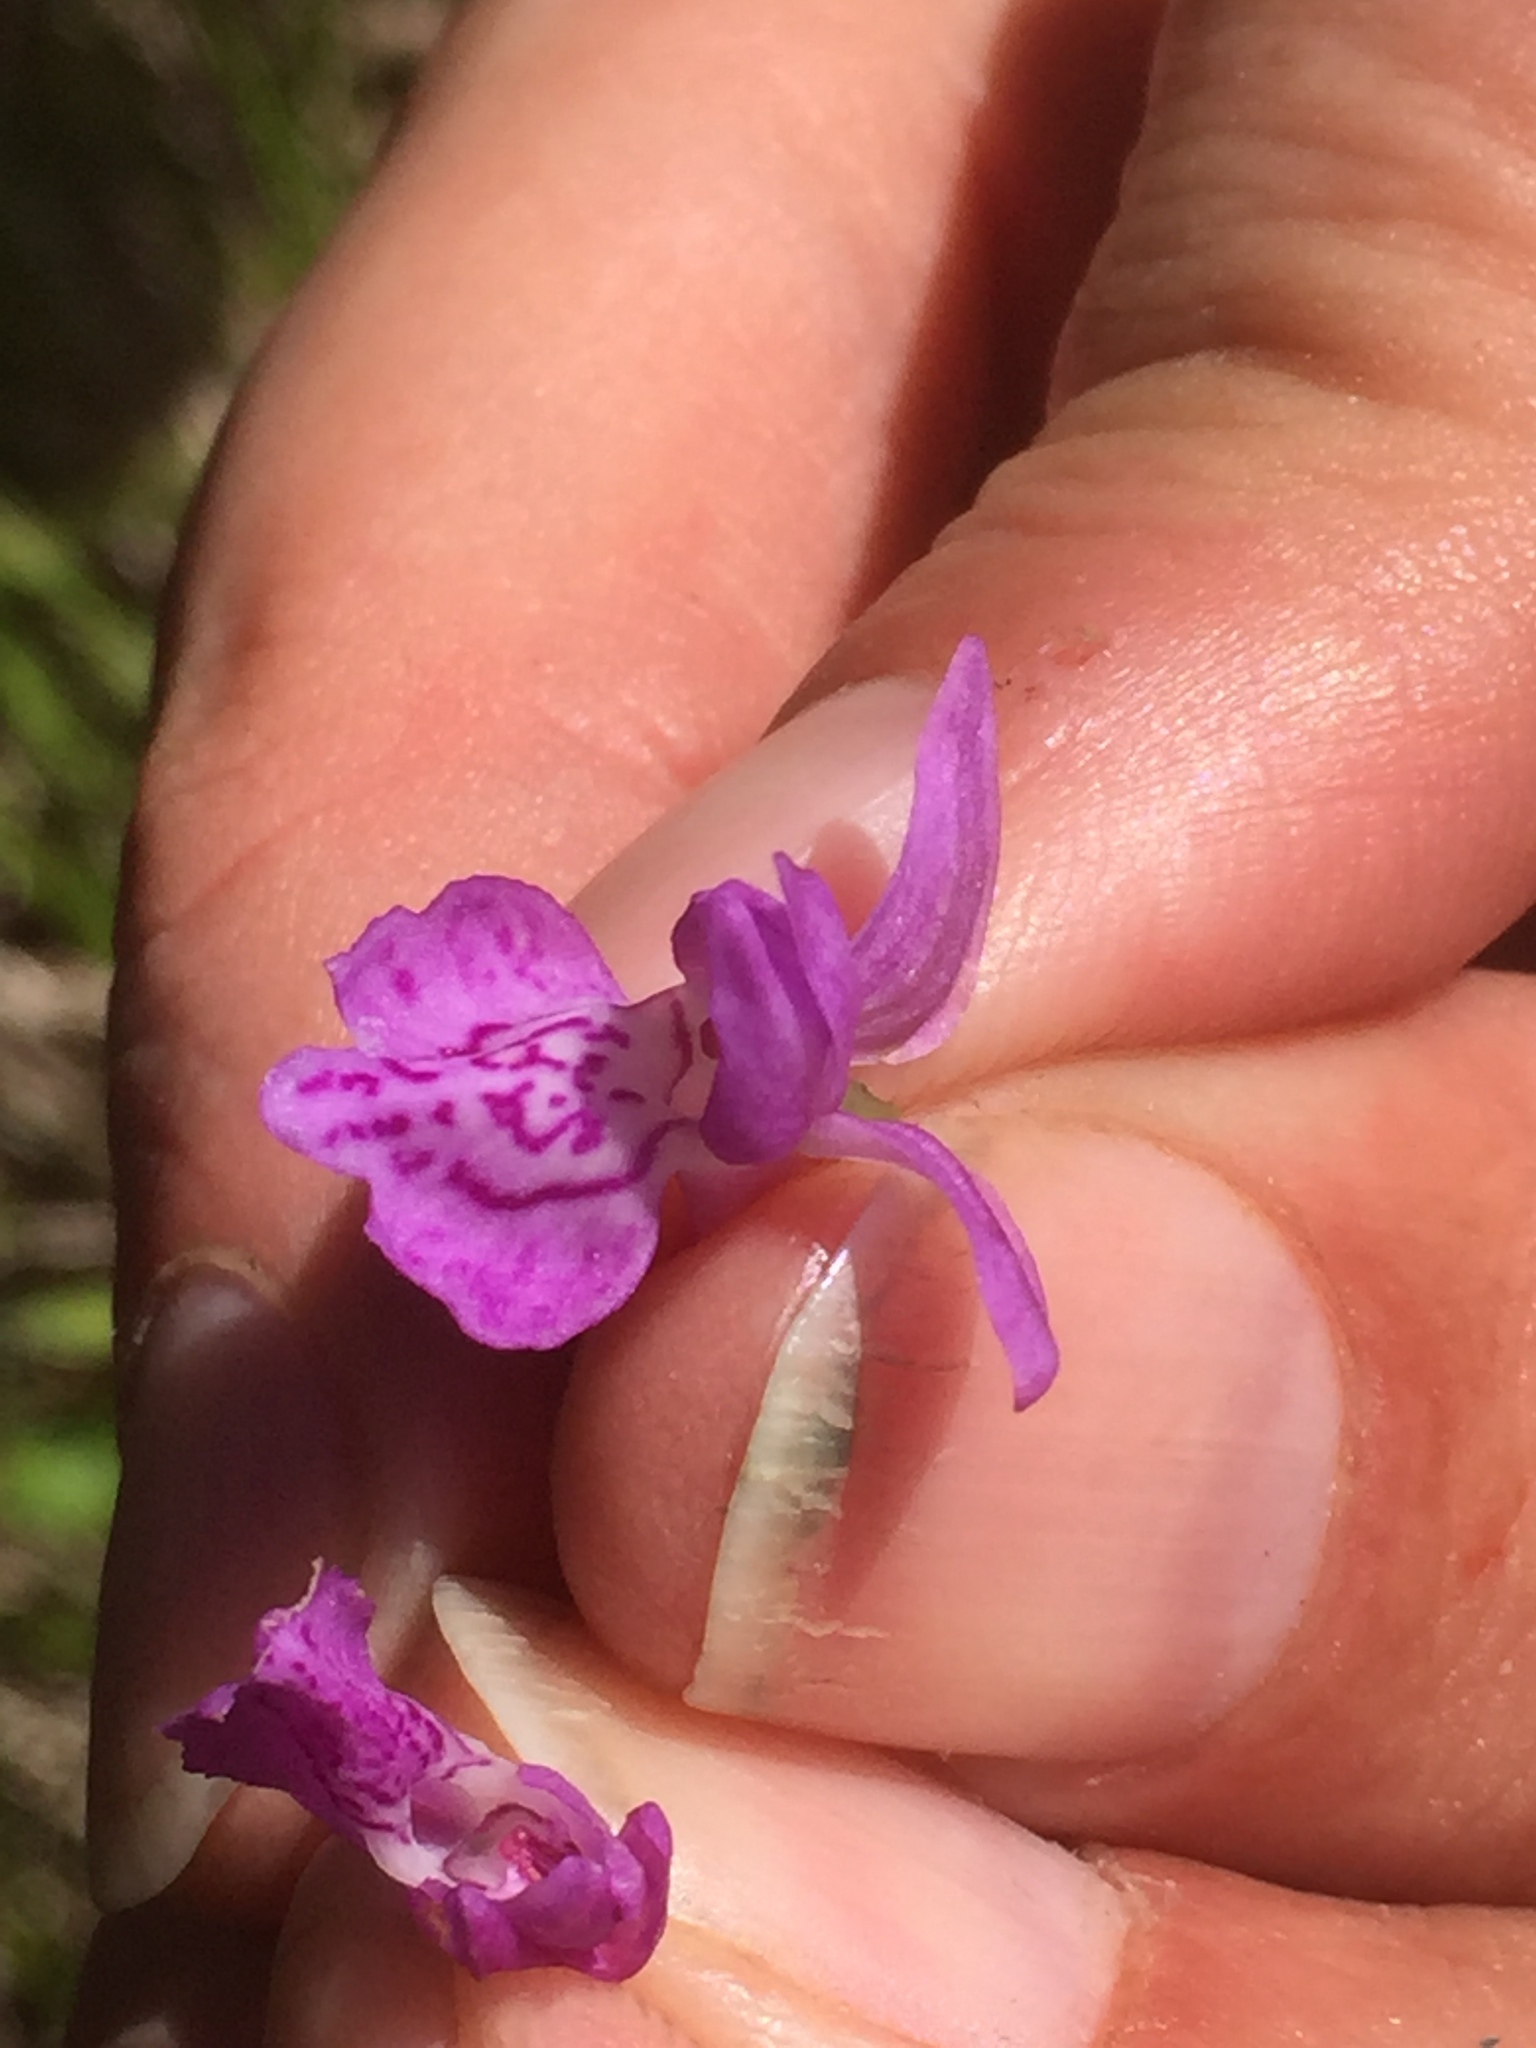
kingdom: Plantae
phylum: Tracheophyta
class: Liliopsida
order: Asparagales
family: Orchidaceae
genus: Dactylorhiza
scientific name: Dactylorhiza incarnata
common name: Early marsh-orchid
